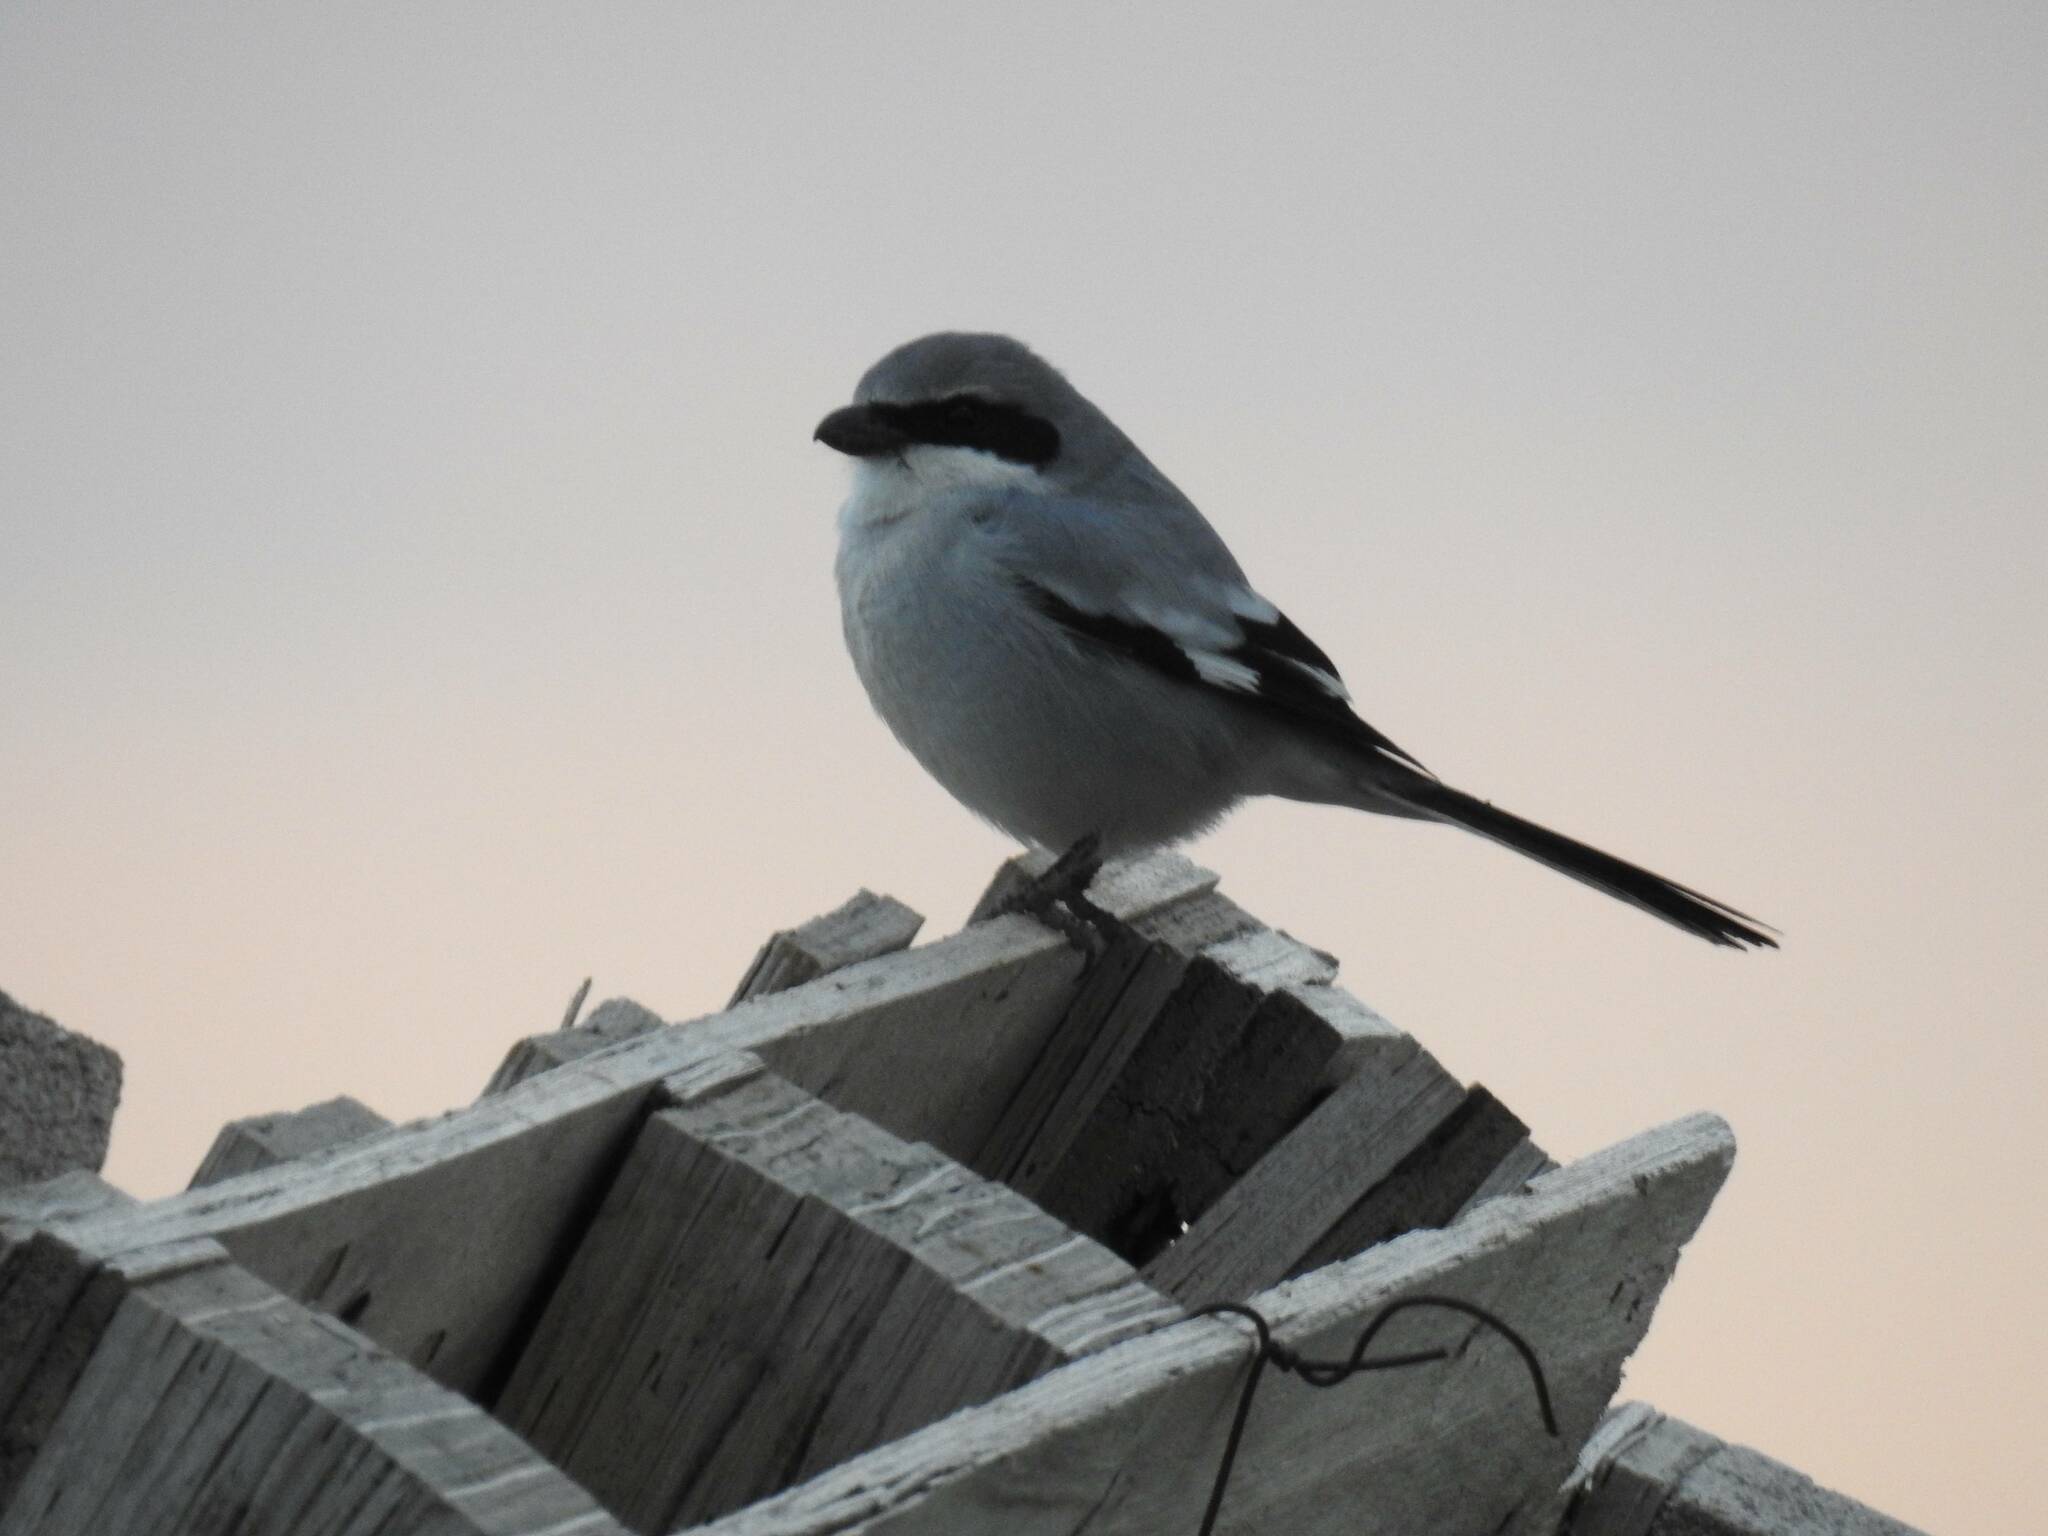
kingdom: Animalia
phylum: Chordata
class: Aves
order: Passeriformes
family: Laniidae
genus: Lanius
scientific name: Lanius excubitor
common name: Great grey shrike
